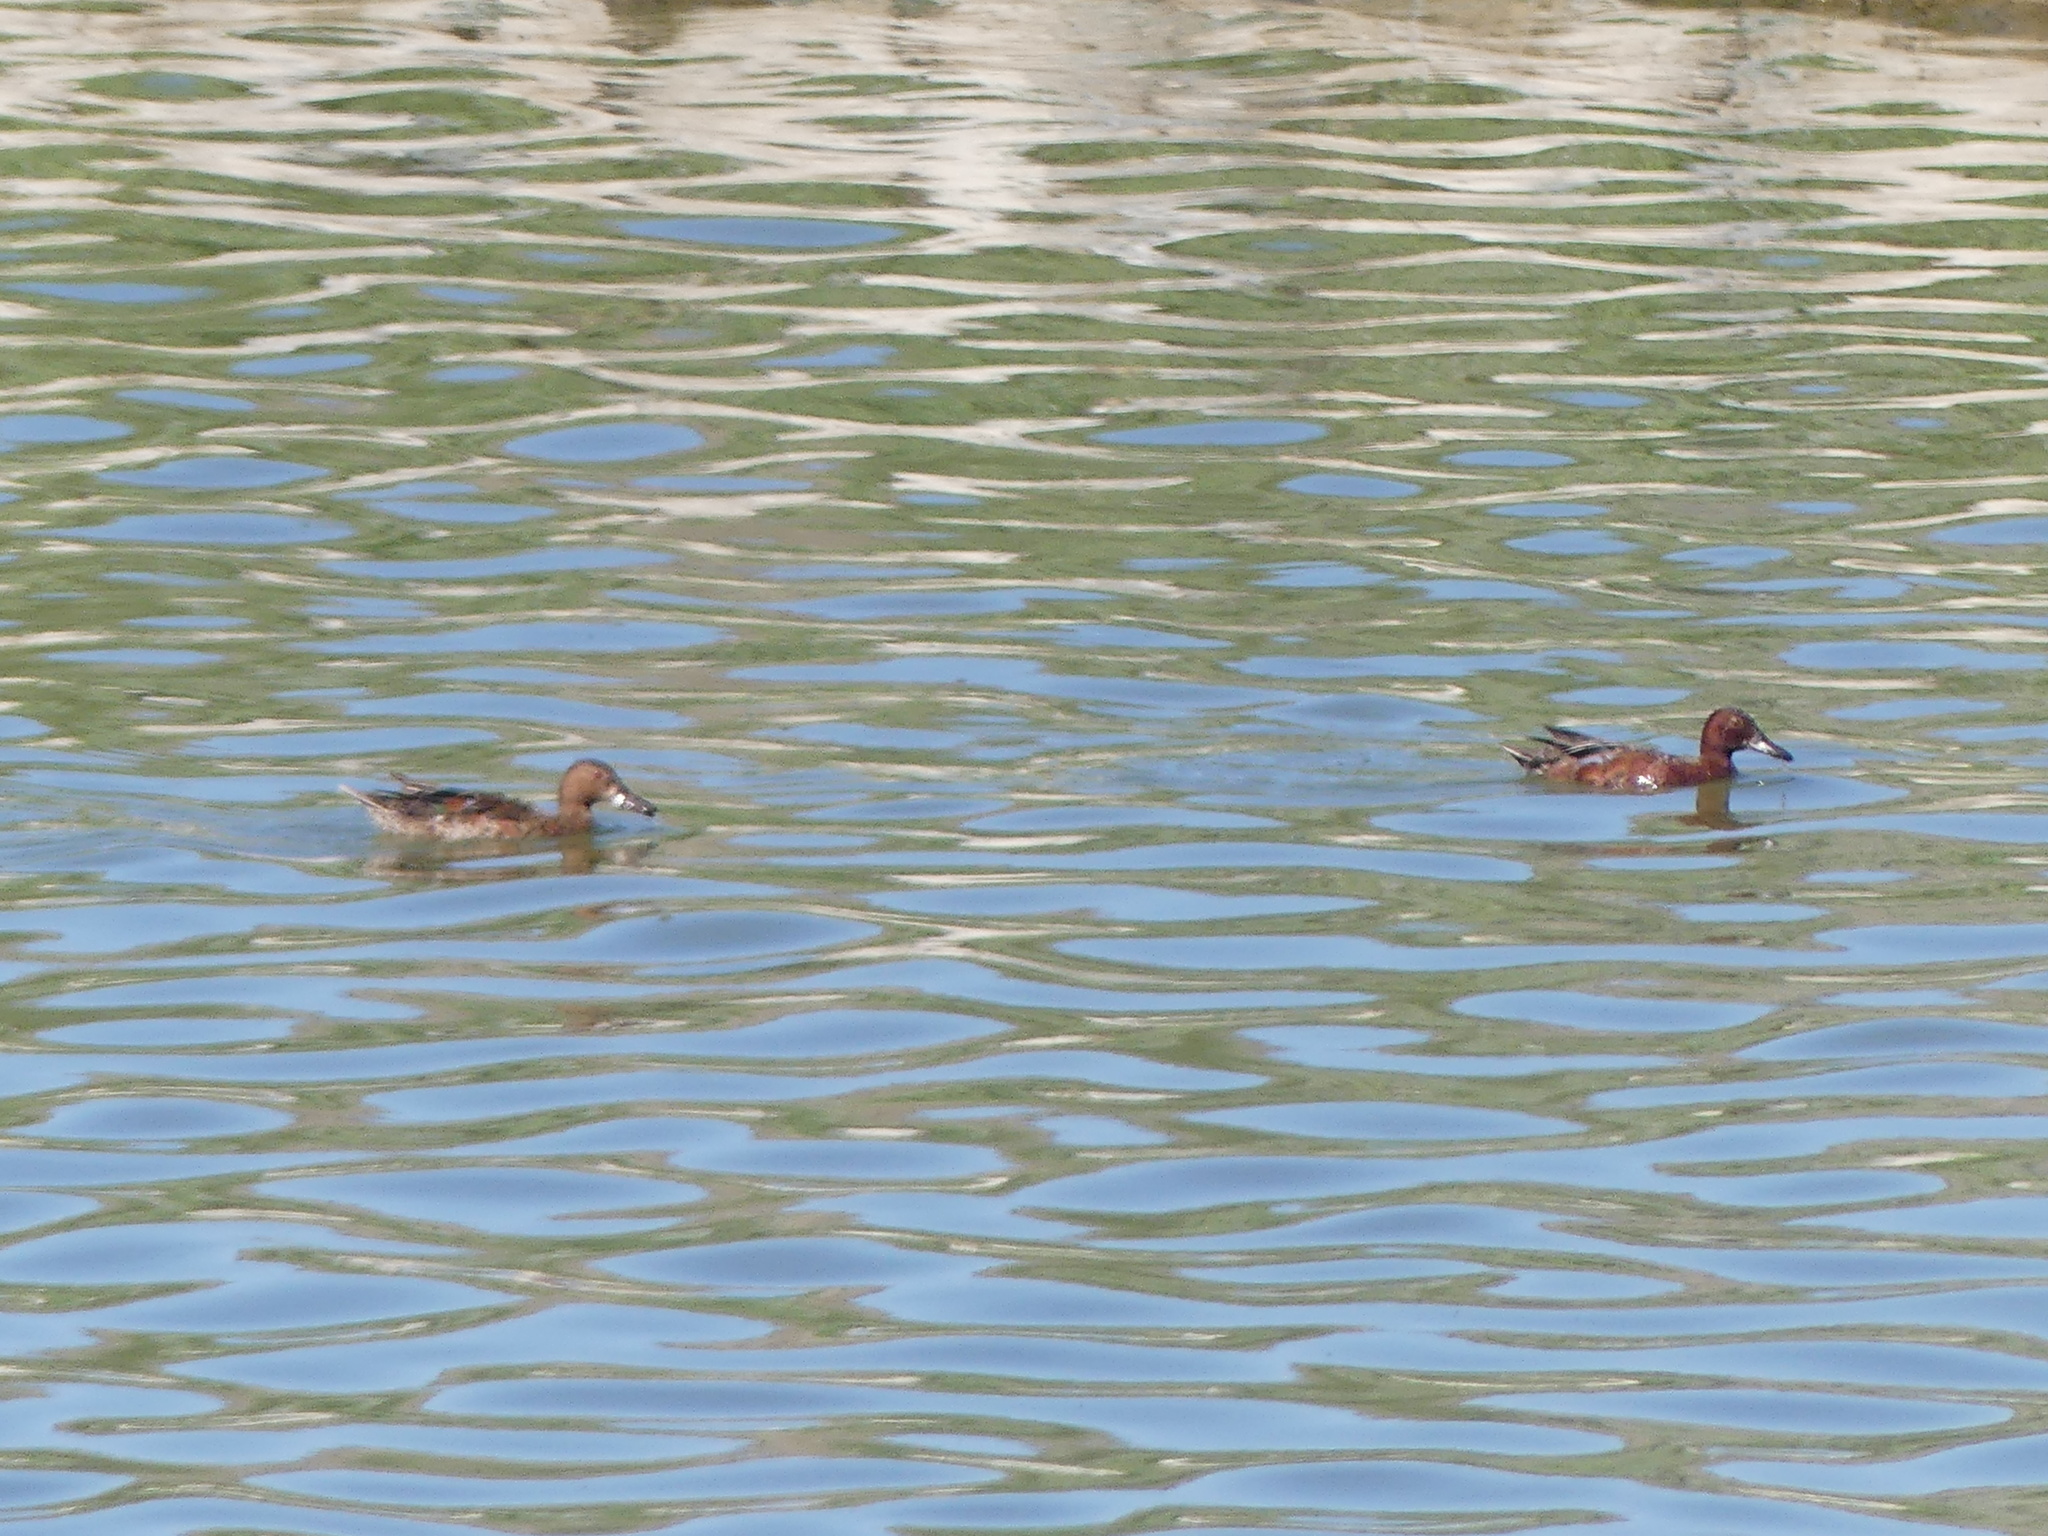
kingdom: Animalia
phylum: Chordata
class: Aves
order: Anseriformes
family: Anatidae
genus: Spatula
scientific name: Spatula cyanoptera
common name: Cinnamon teal
